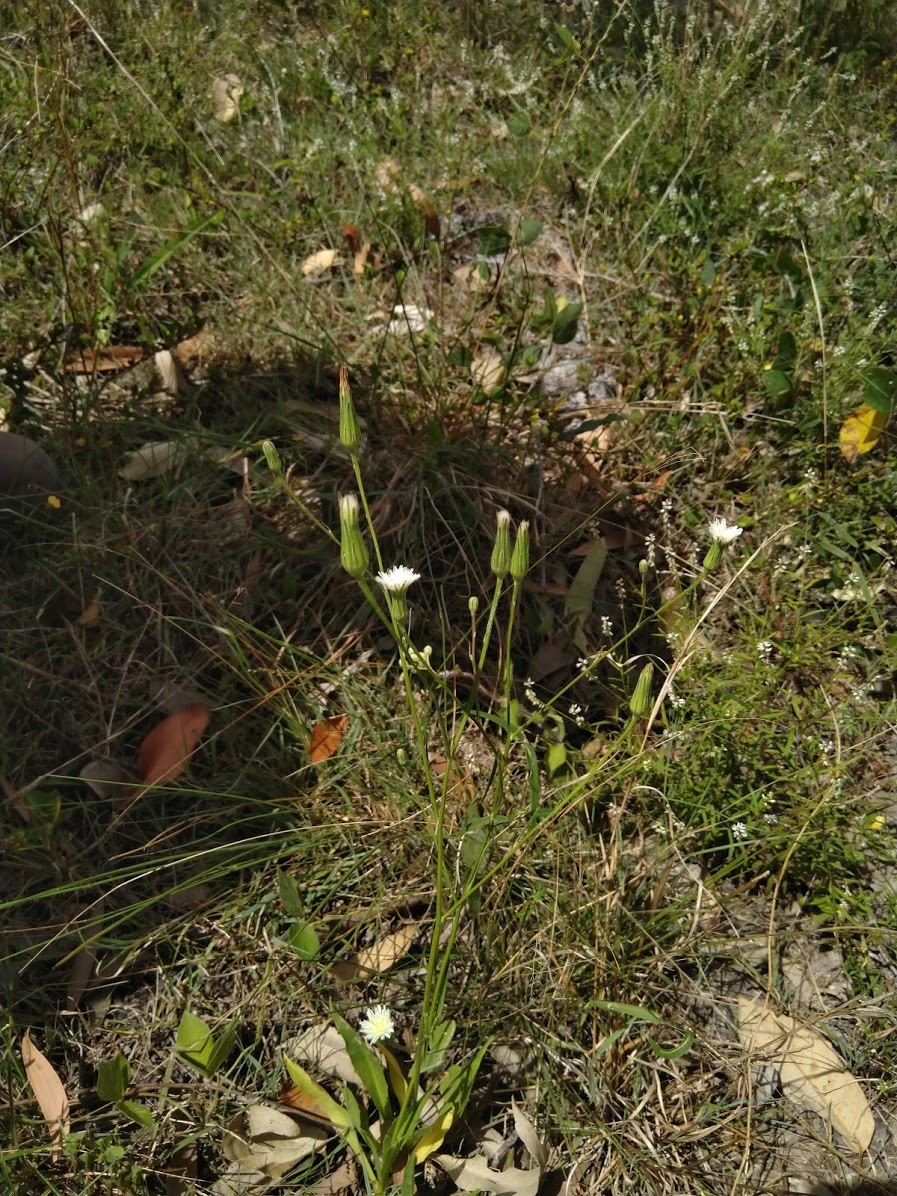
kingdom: Plantae
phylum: Tracheophyta
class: Magnoliopsida
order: Asterales
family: Asteraceae
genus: Hypochaeris
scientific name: Hypochaeris albiflora
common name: White flatweed
